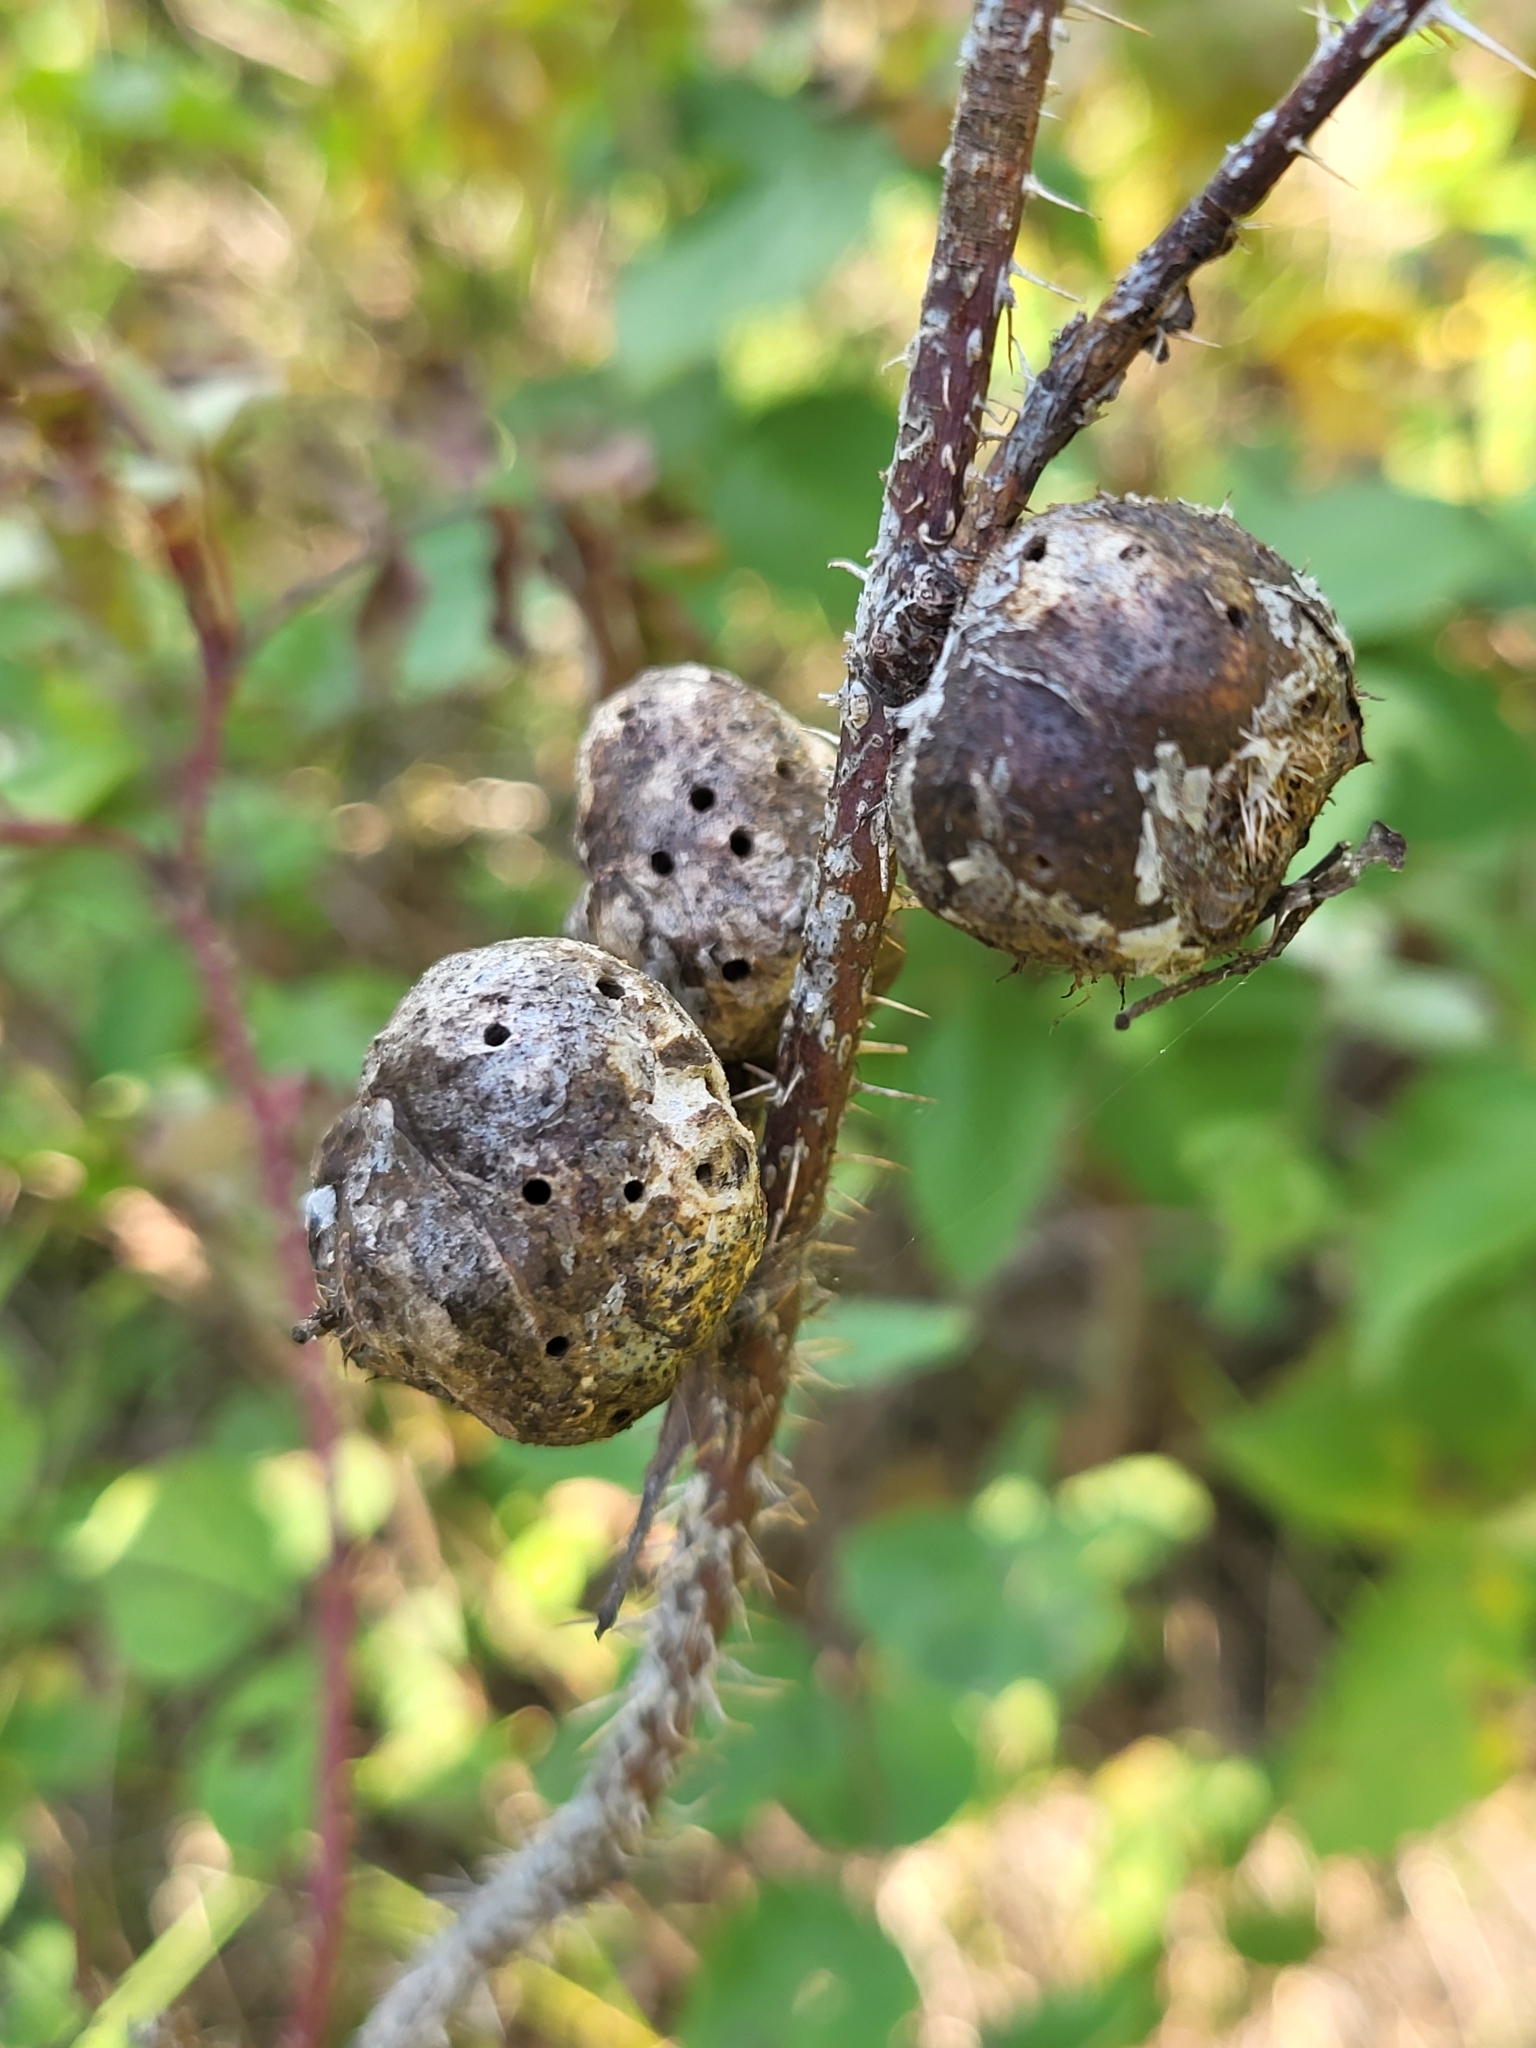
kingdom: Animalia
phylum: Arthropoda
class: Insecta
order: Hymenoptera
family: Cynipidae
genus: Diplolepis
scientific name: Diplolepis spinosa
